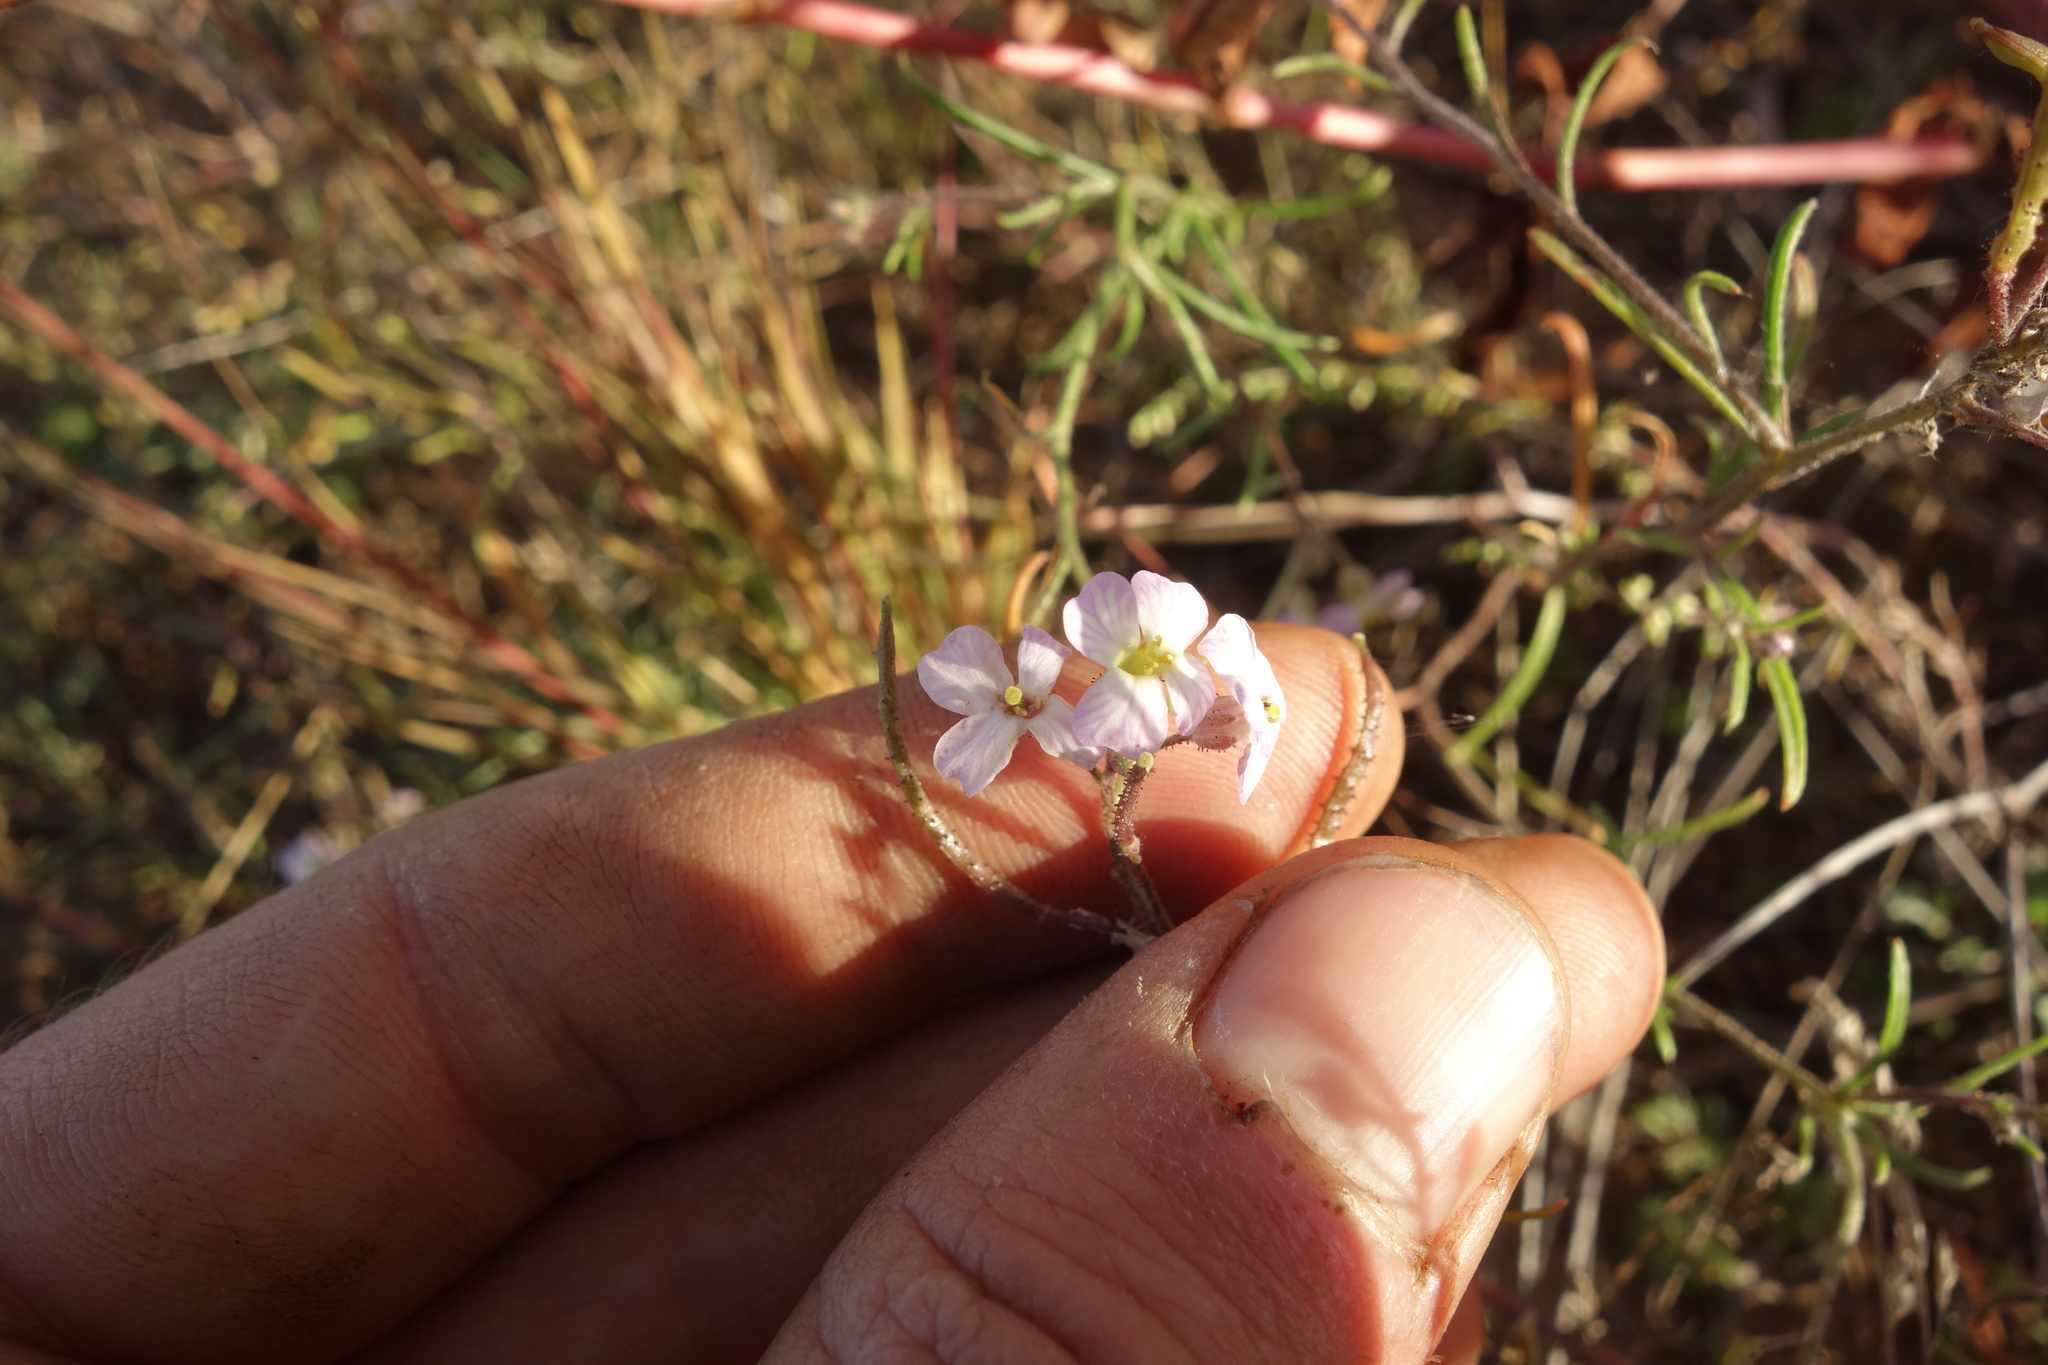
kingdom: Plantae
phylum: Tracheophyta
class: Magnoliopsida
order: Brassicales
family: Brassicaceae
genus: Dontostemon
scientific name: Dontostemon integrifolius
